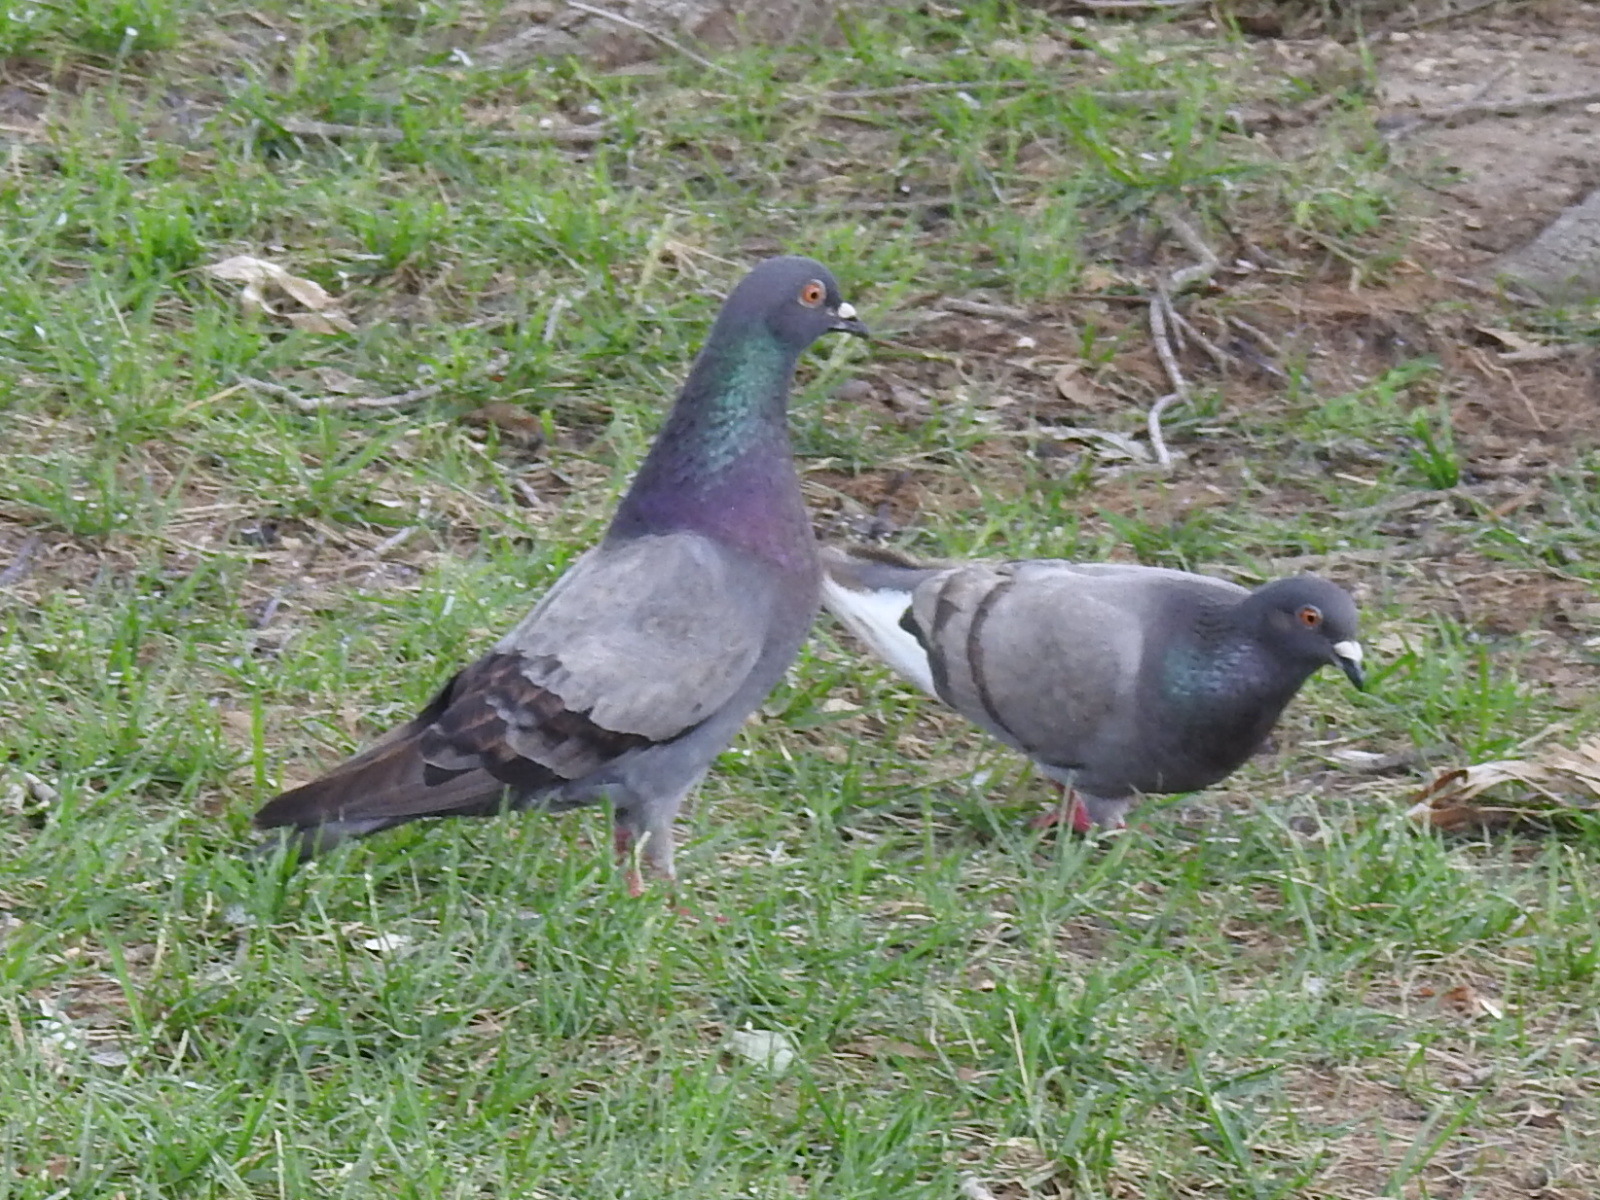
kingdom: Animalia
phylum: Chordata
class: Aves
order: Columbiformes
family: Columbidae
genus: Columba
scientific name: Columba livia
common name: Rock pigeon
